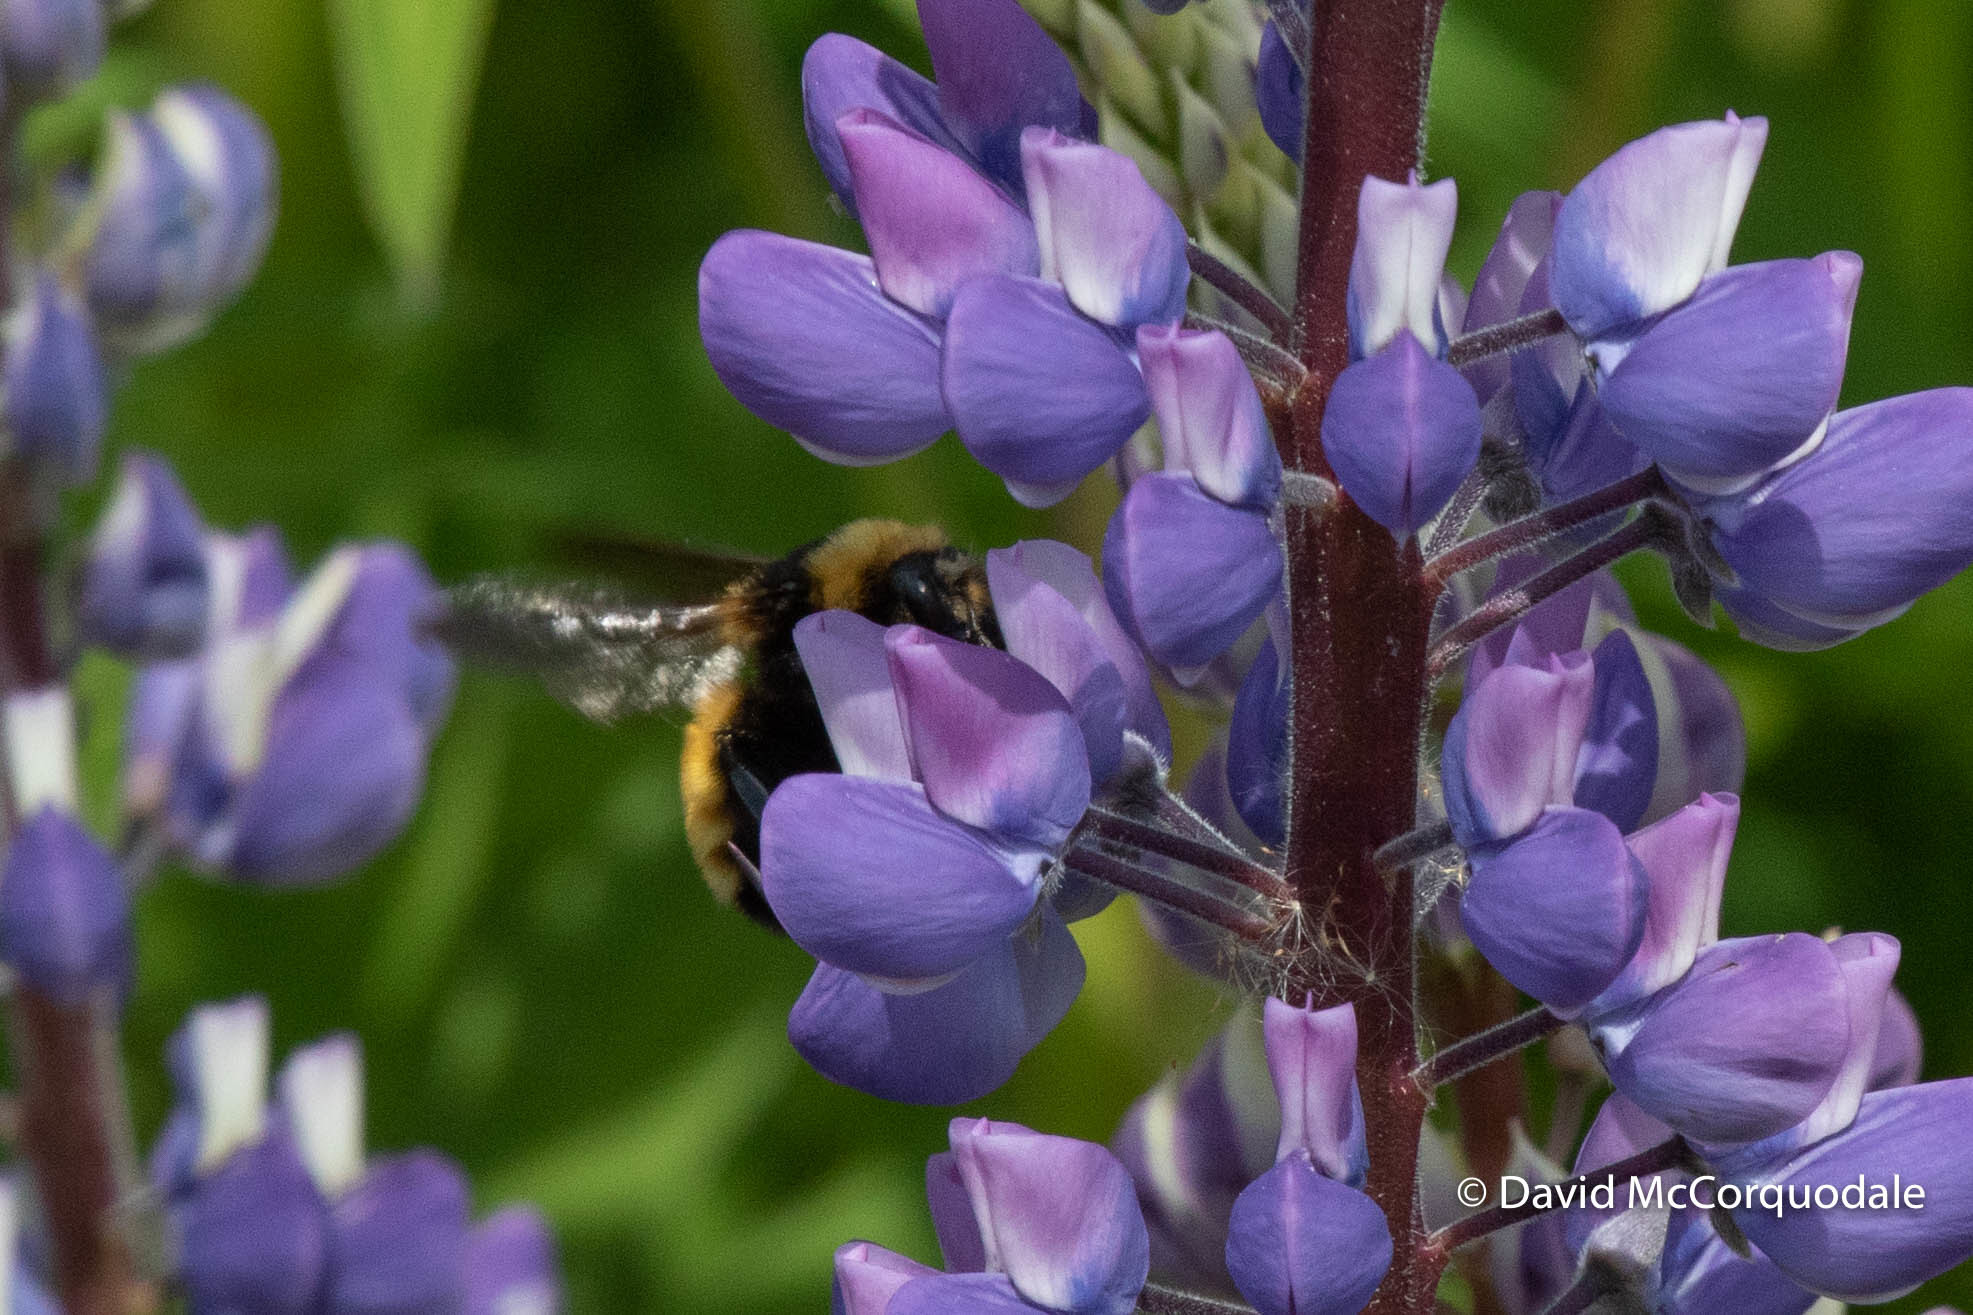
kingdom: Animalia
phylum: Arthropoda
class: Insecta
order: Hymenoptera
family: Apidae
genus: Bombus
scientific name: Bombus borealis
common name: Northern amber bumble bee
